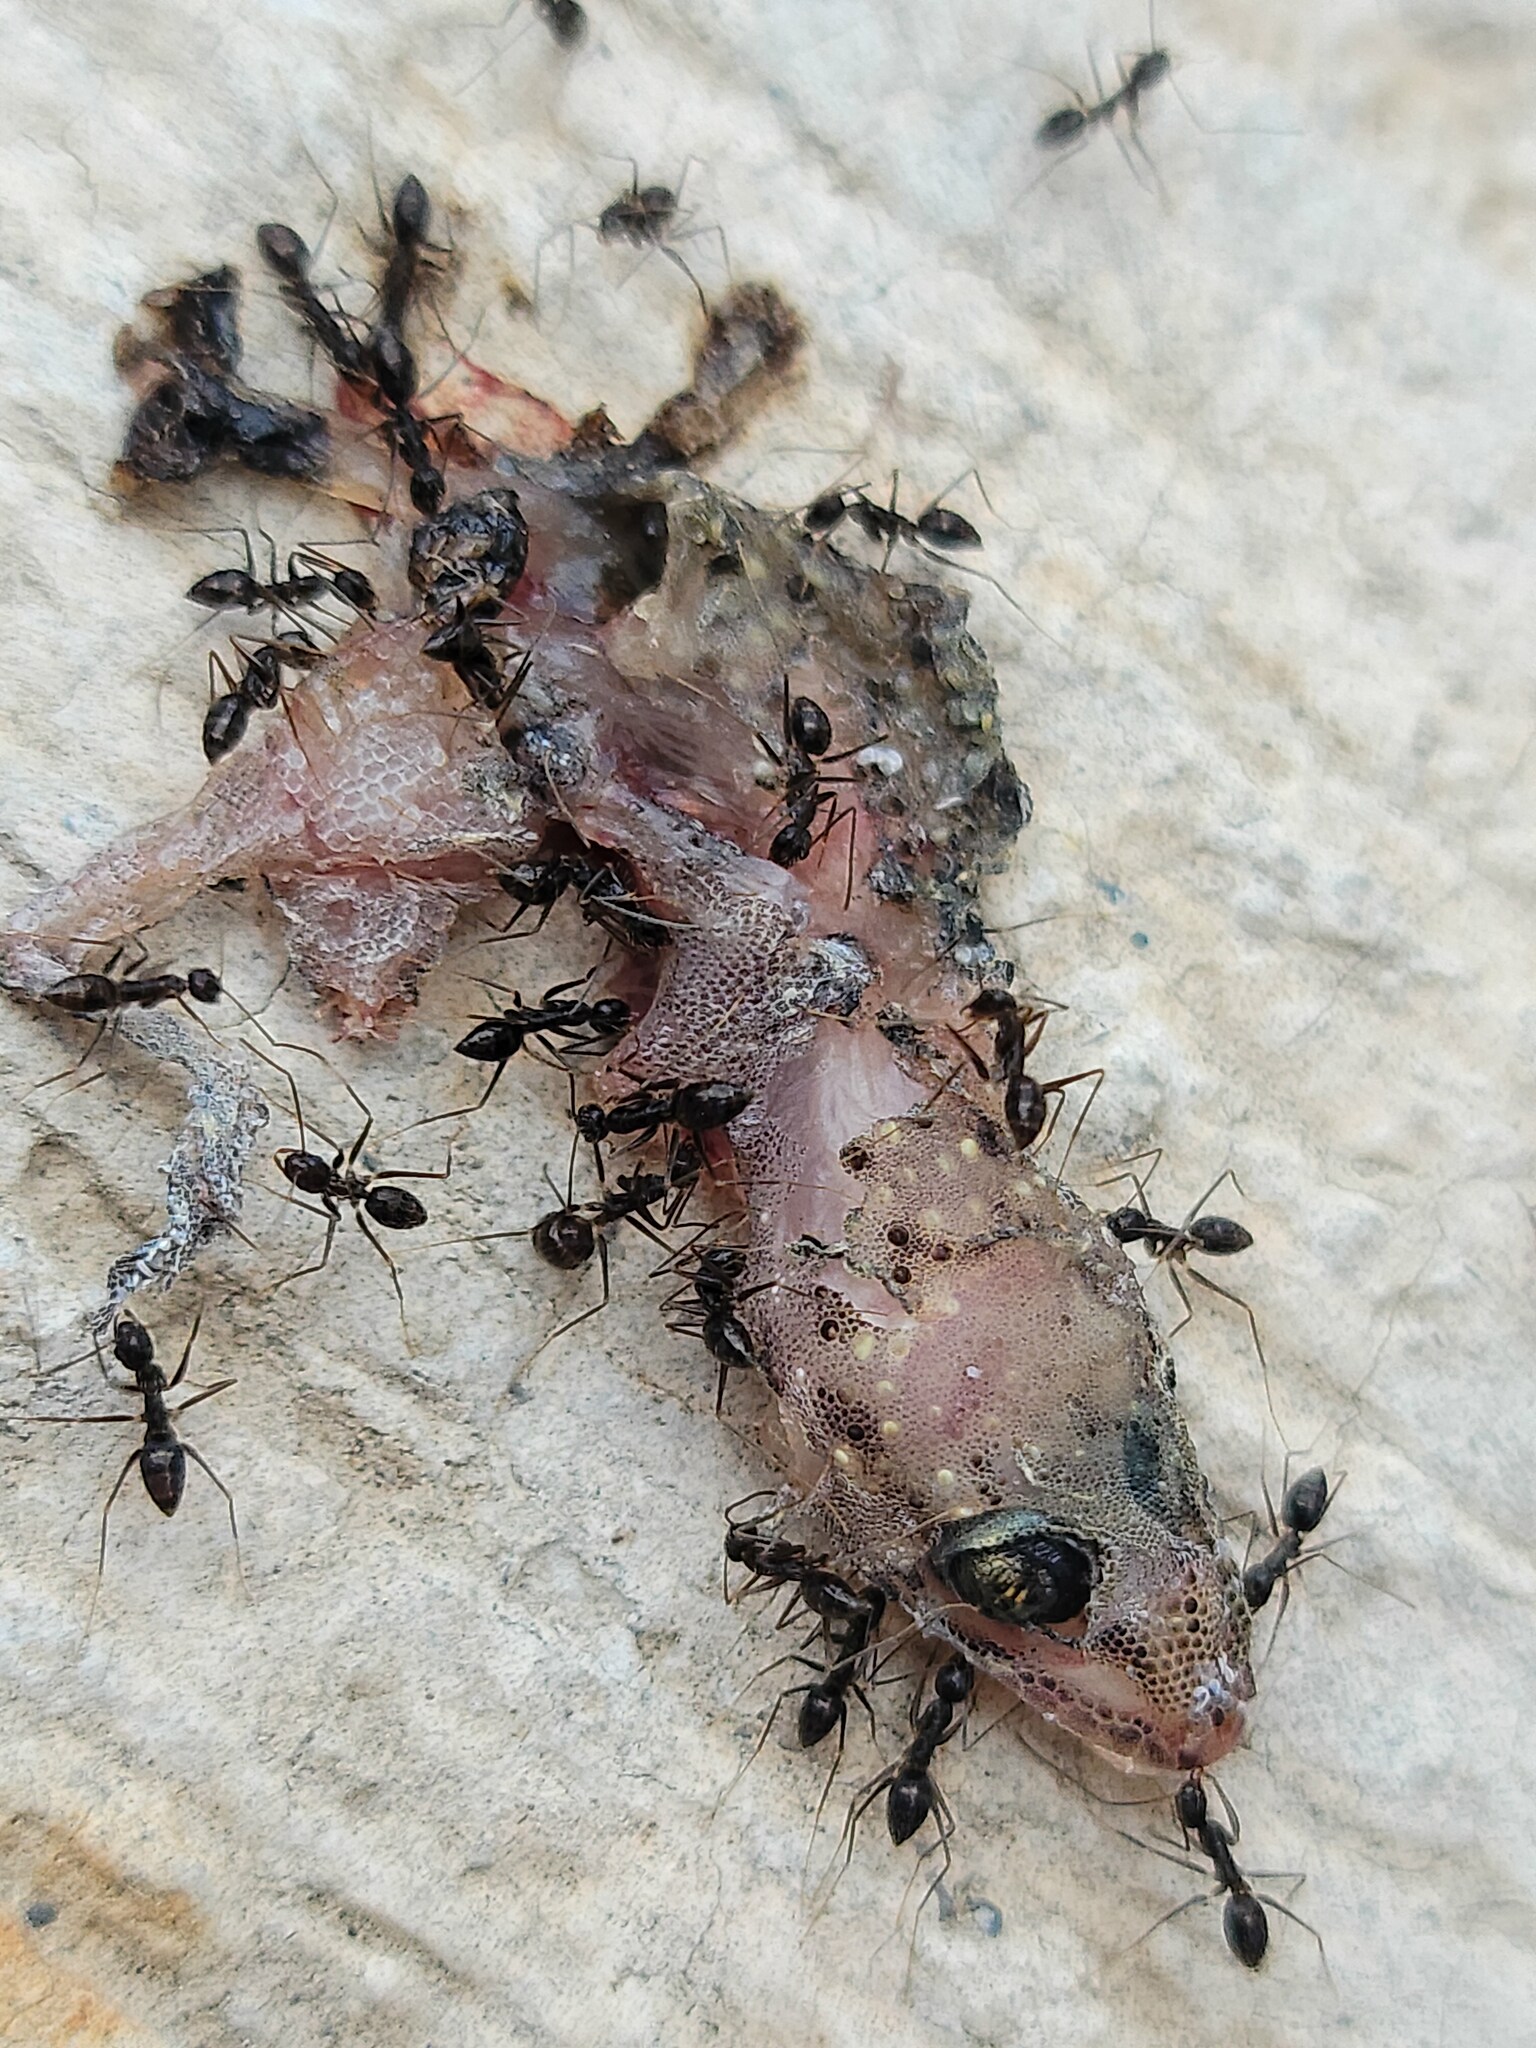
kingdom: Animalia
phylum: Chordata
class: Squamata
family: Gekkonidae
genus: Hemidactylus
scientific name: Hemidactylus turcicus
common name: Turkish gecko
